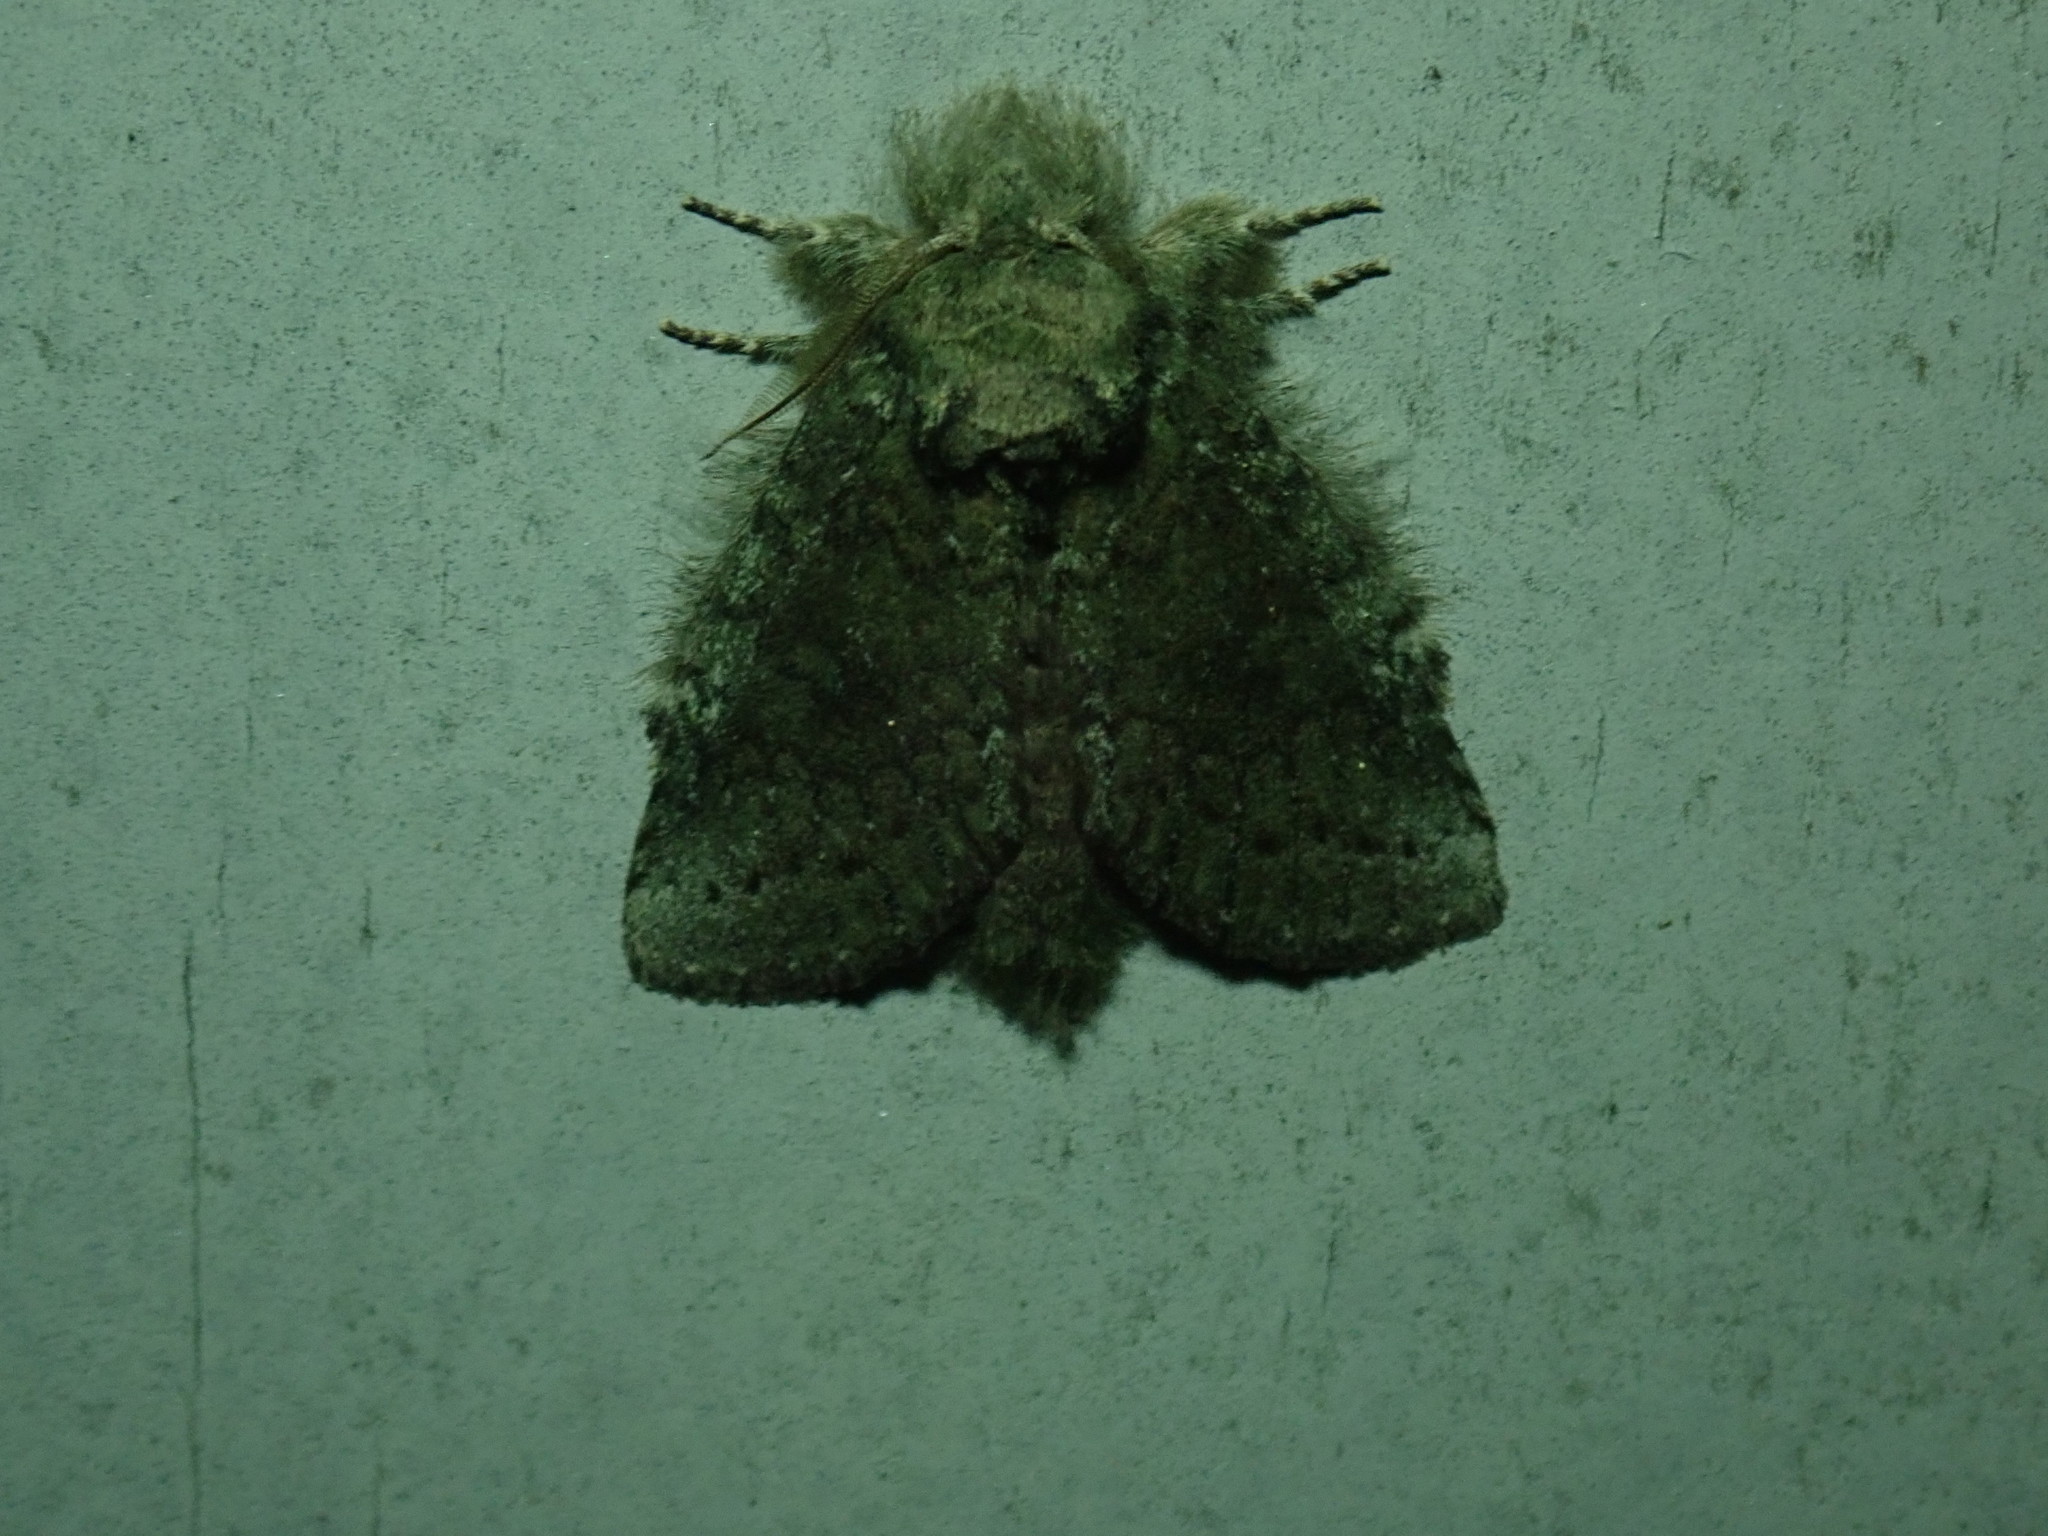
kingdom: Animalia
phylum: Arthropoda
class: Insecta
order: Lepidoptera
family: Notodontidae
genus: Disphragis
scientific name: Disphragis Cecrita guttivitta
